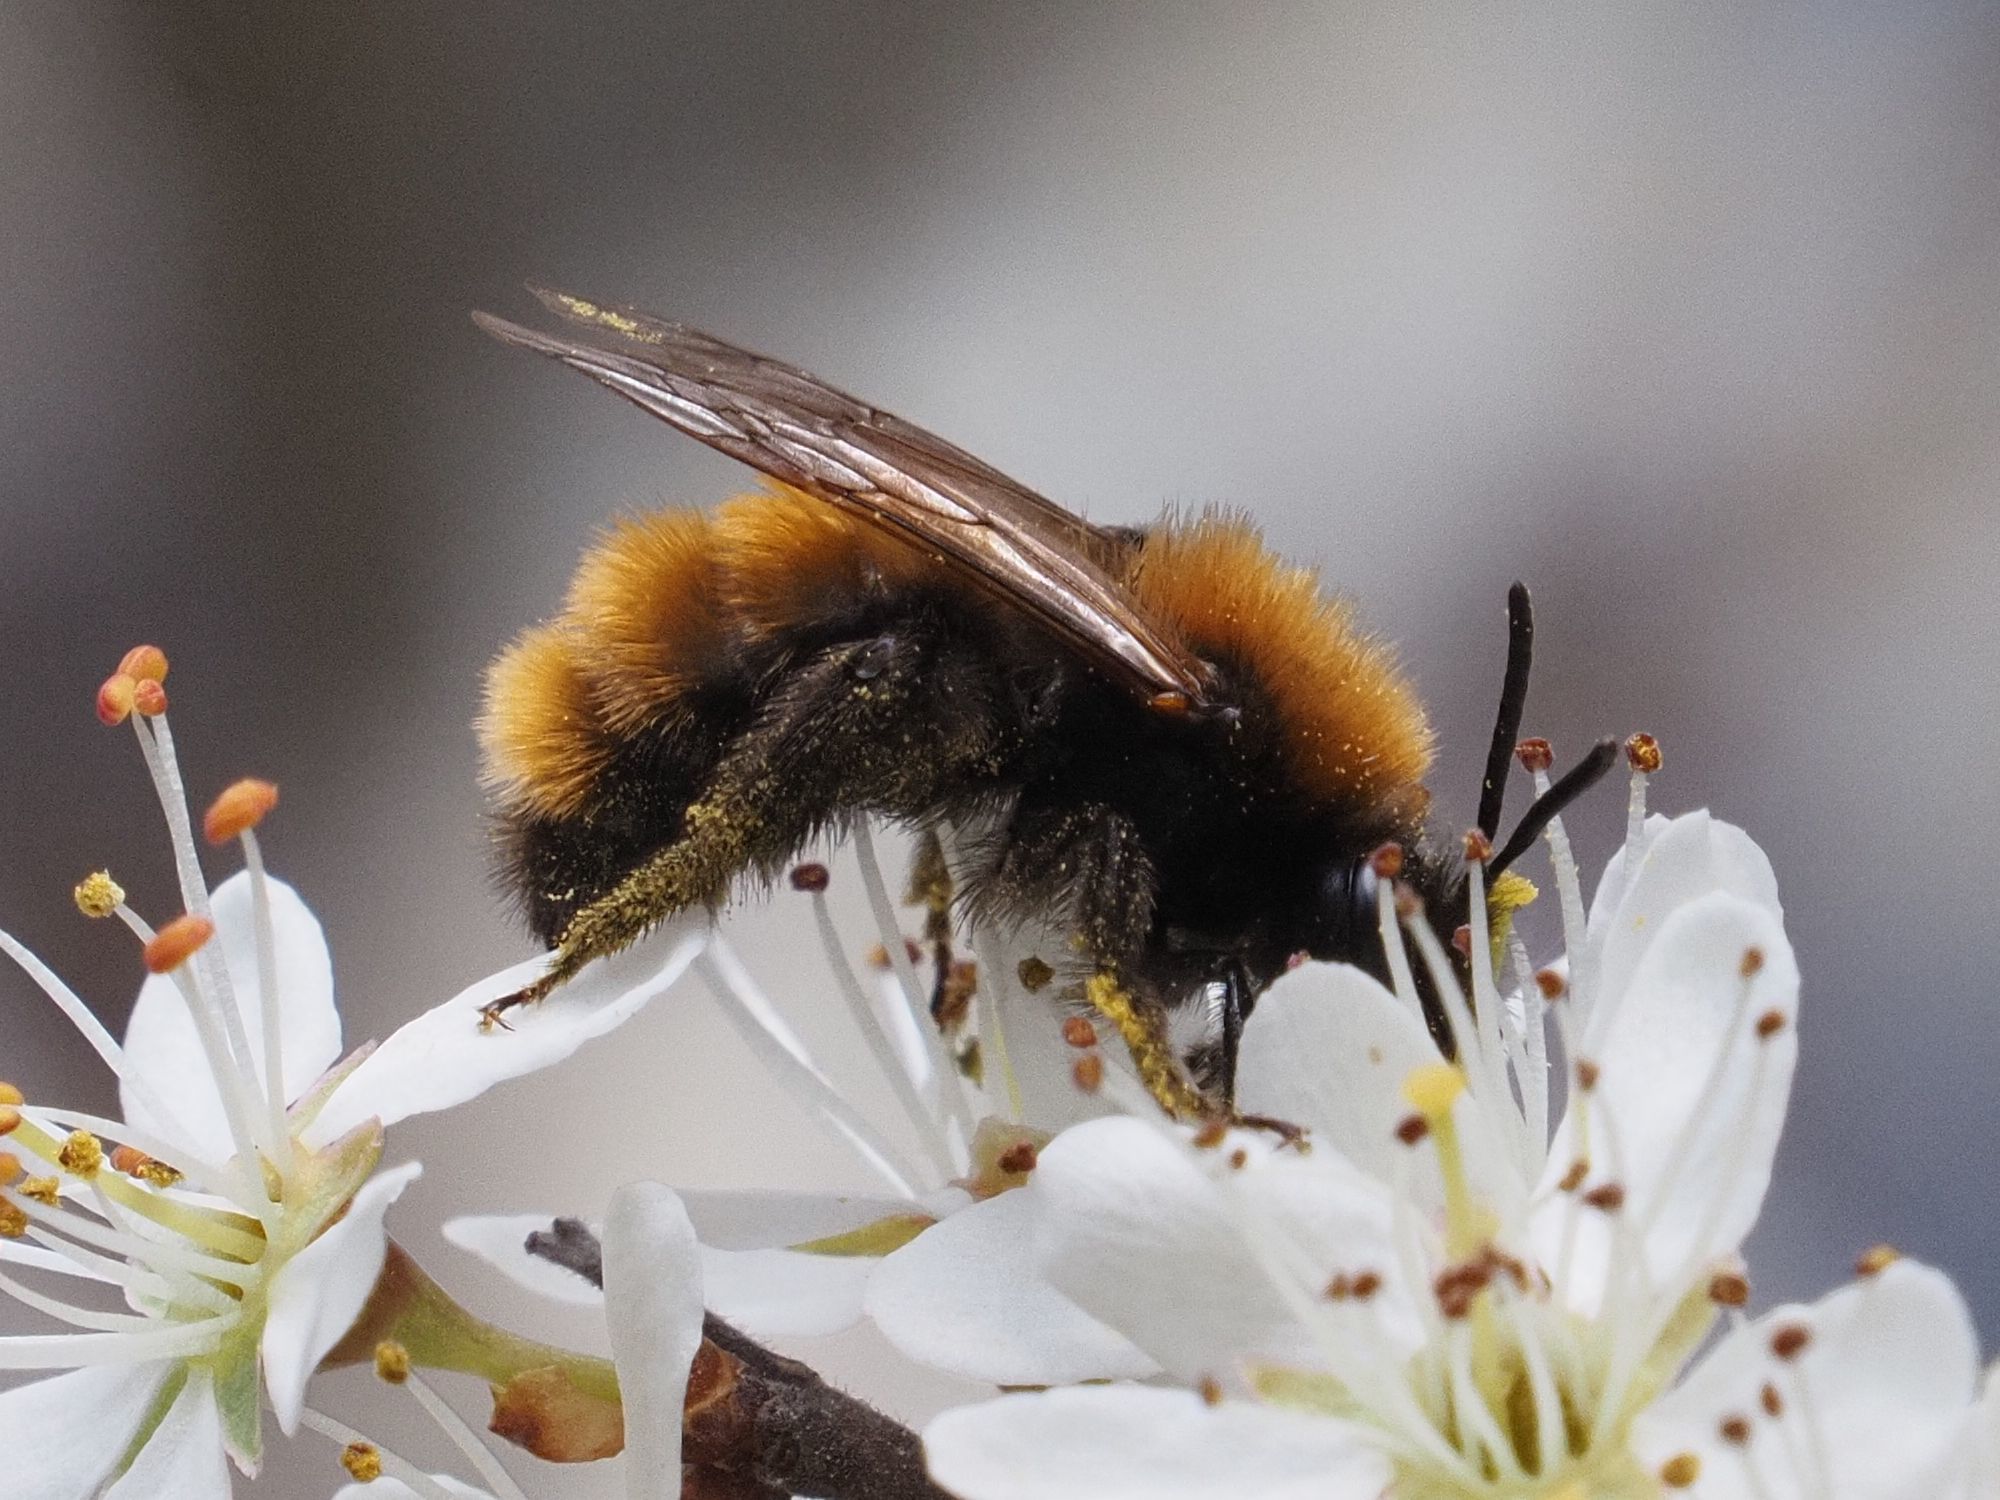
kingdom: Animalia
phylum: Arthropoda
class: Insecta
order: Hymenoptera
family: Andrenidae
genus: Andrena
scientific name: Andrena fulva
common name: Tawny mining bee
